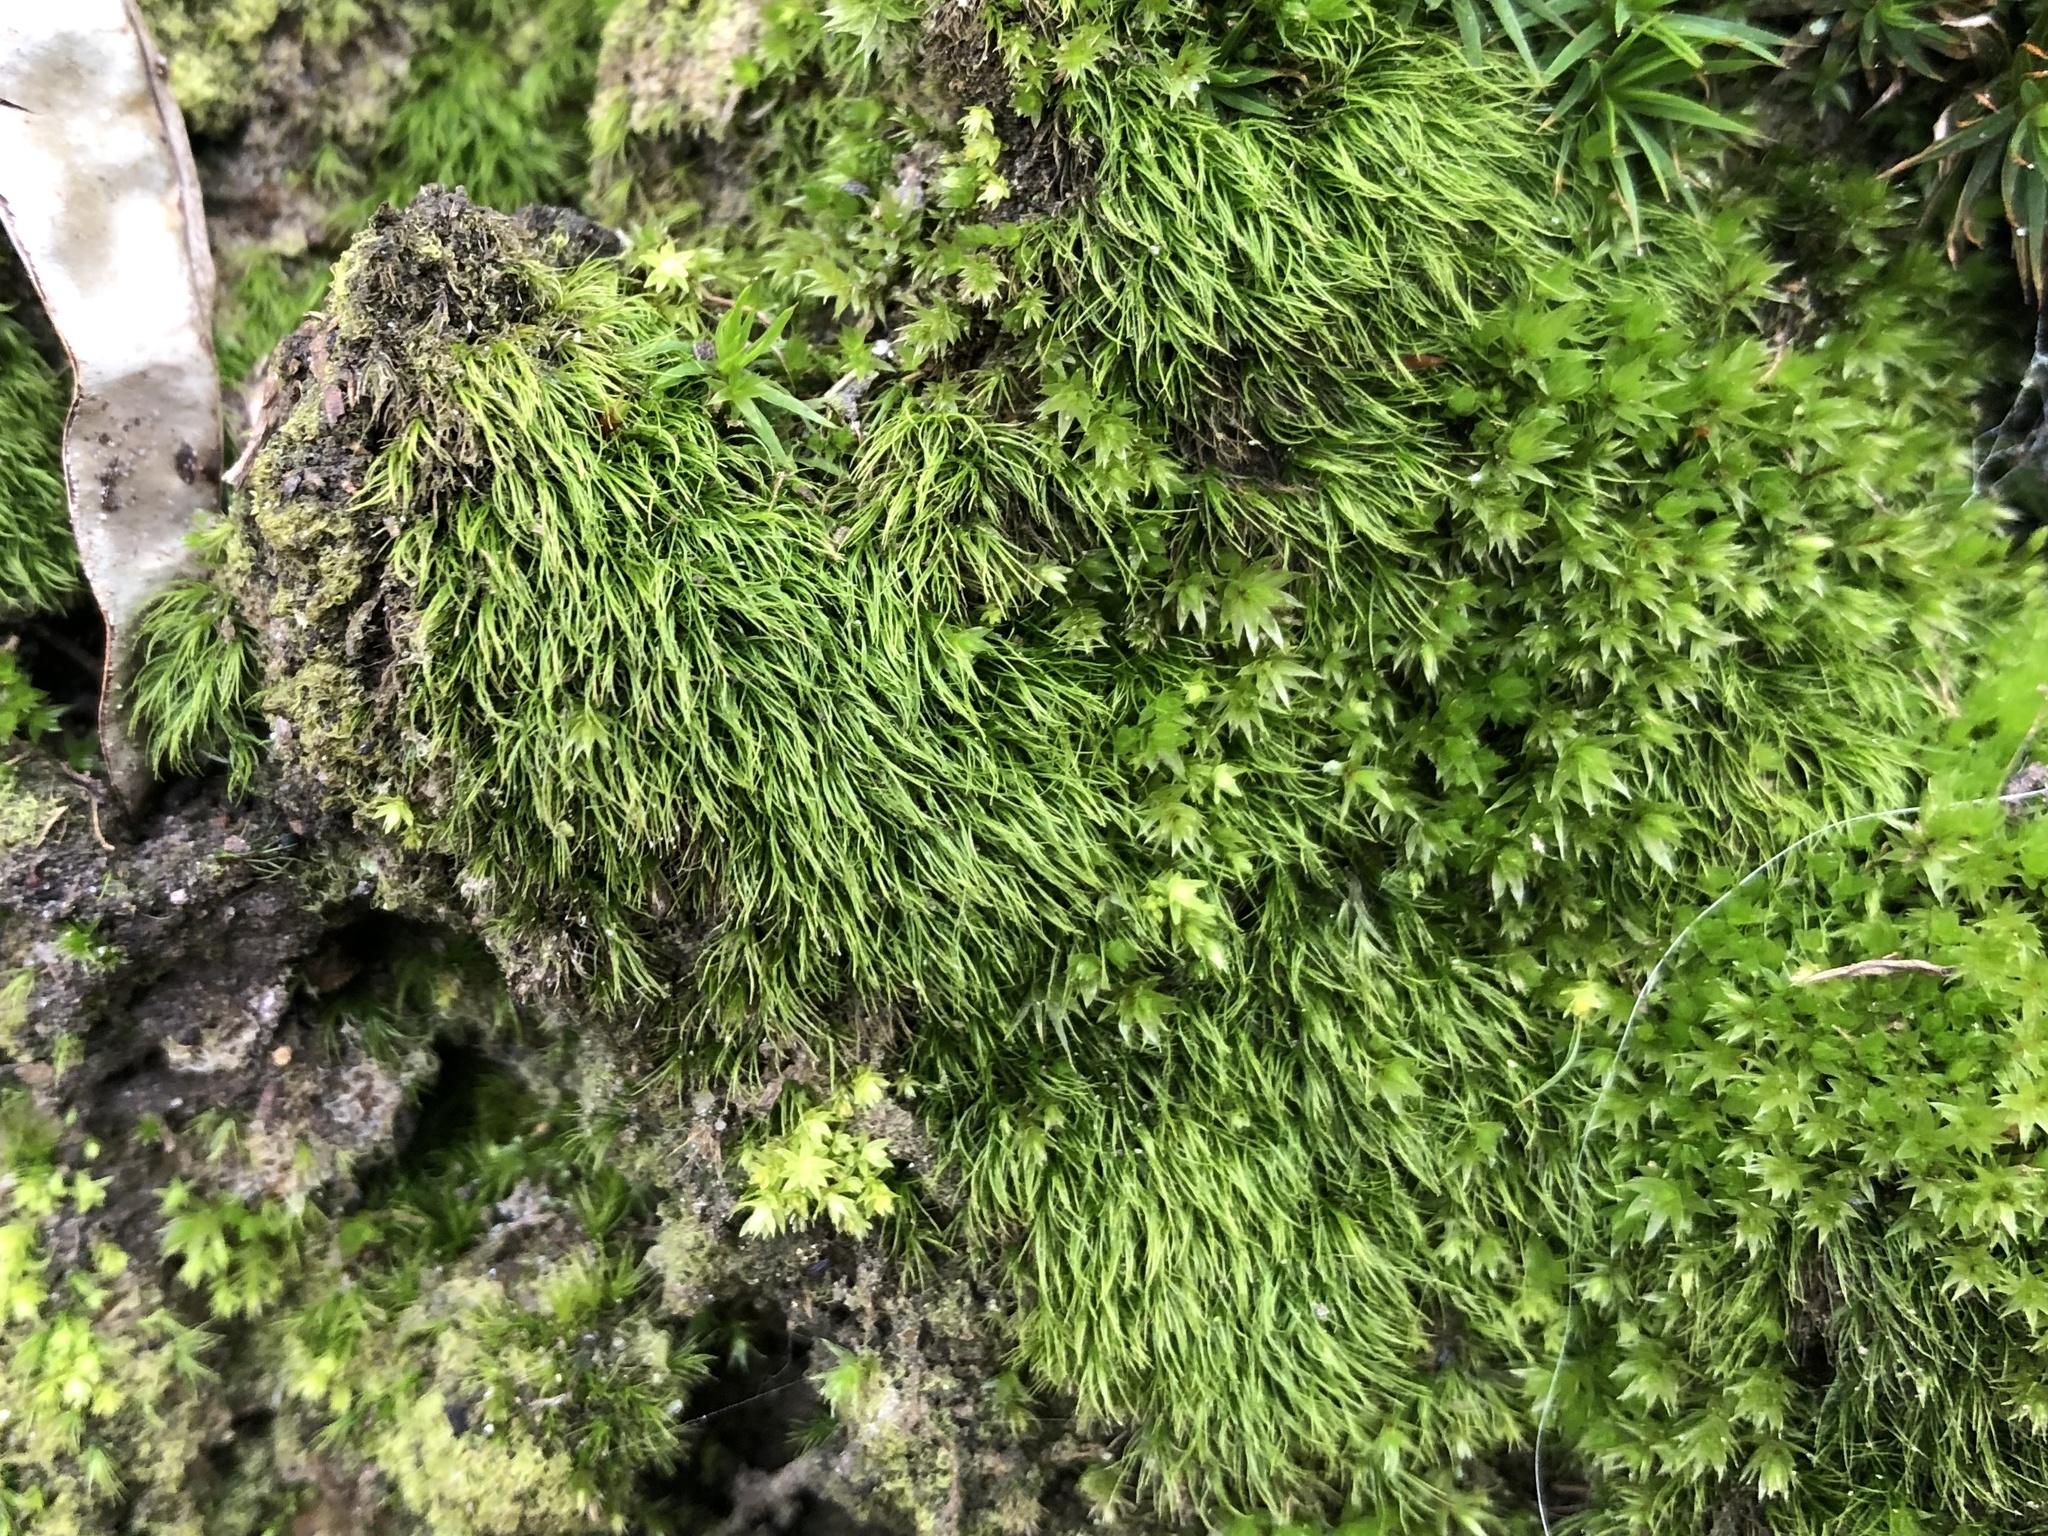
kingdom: Plantae
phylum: Bryophyta
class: Bryopsida
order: Dicranales
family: Dicranellaceae
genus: Dicranella
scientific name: Dicranella heteromalla
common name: Silky forklet moss
